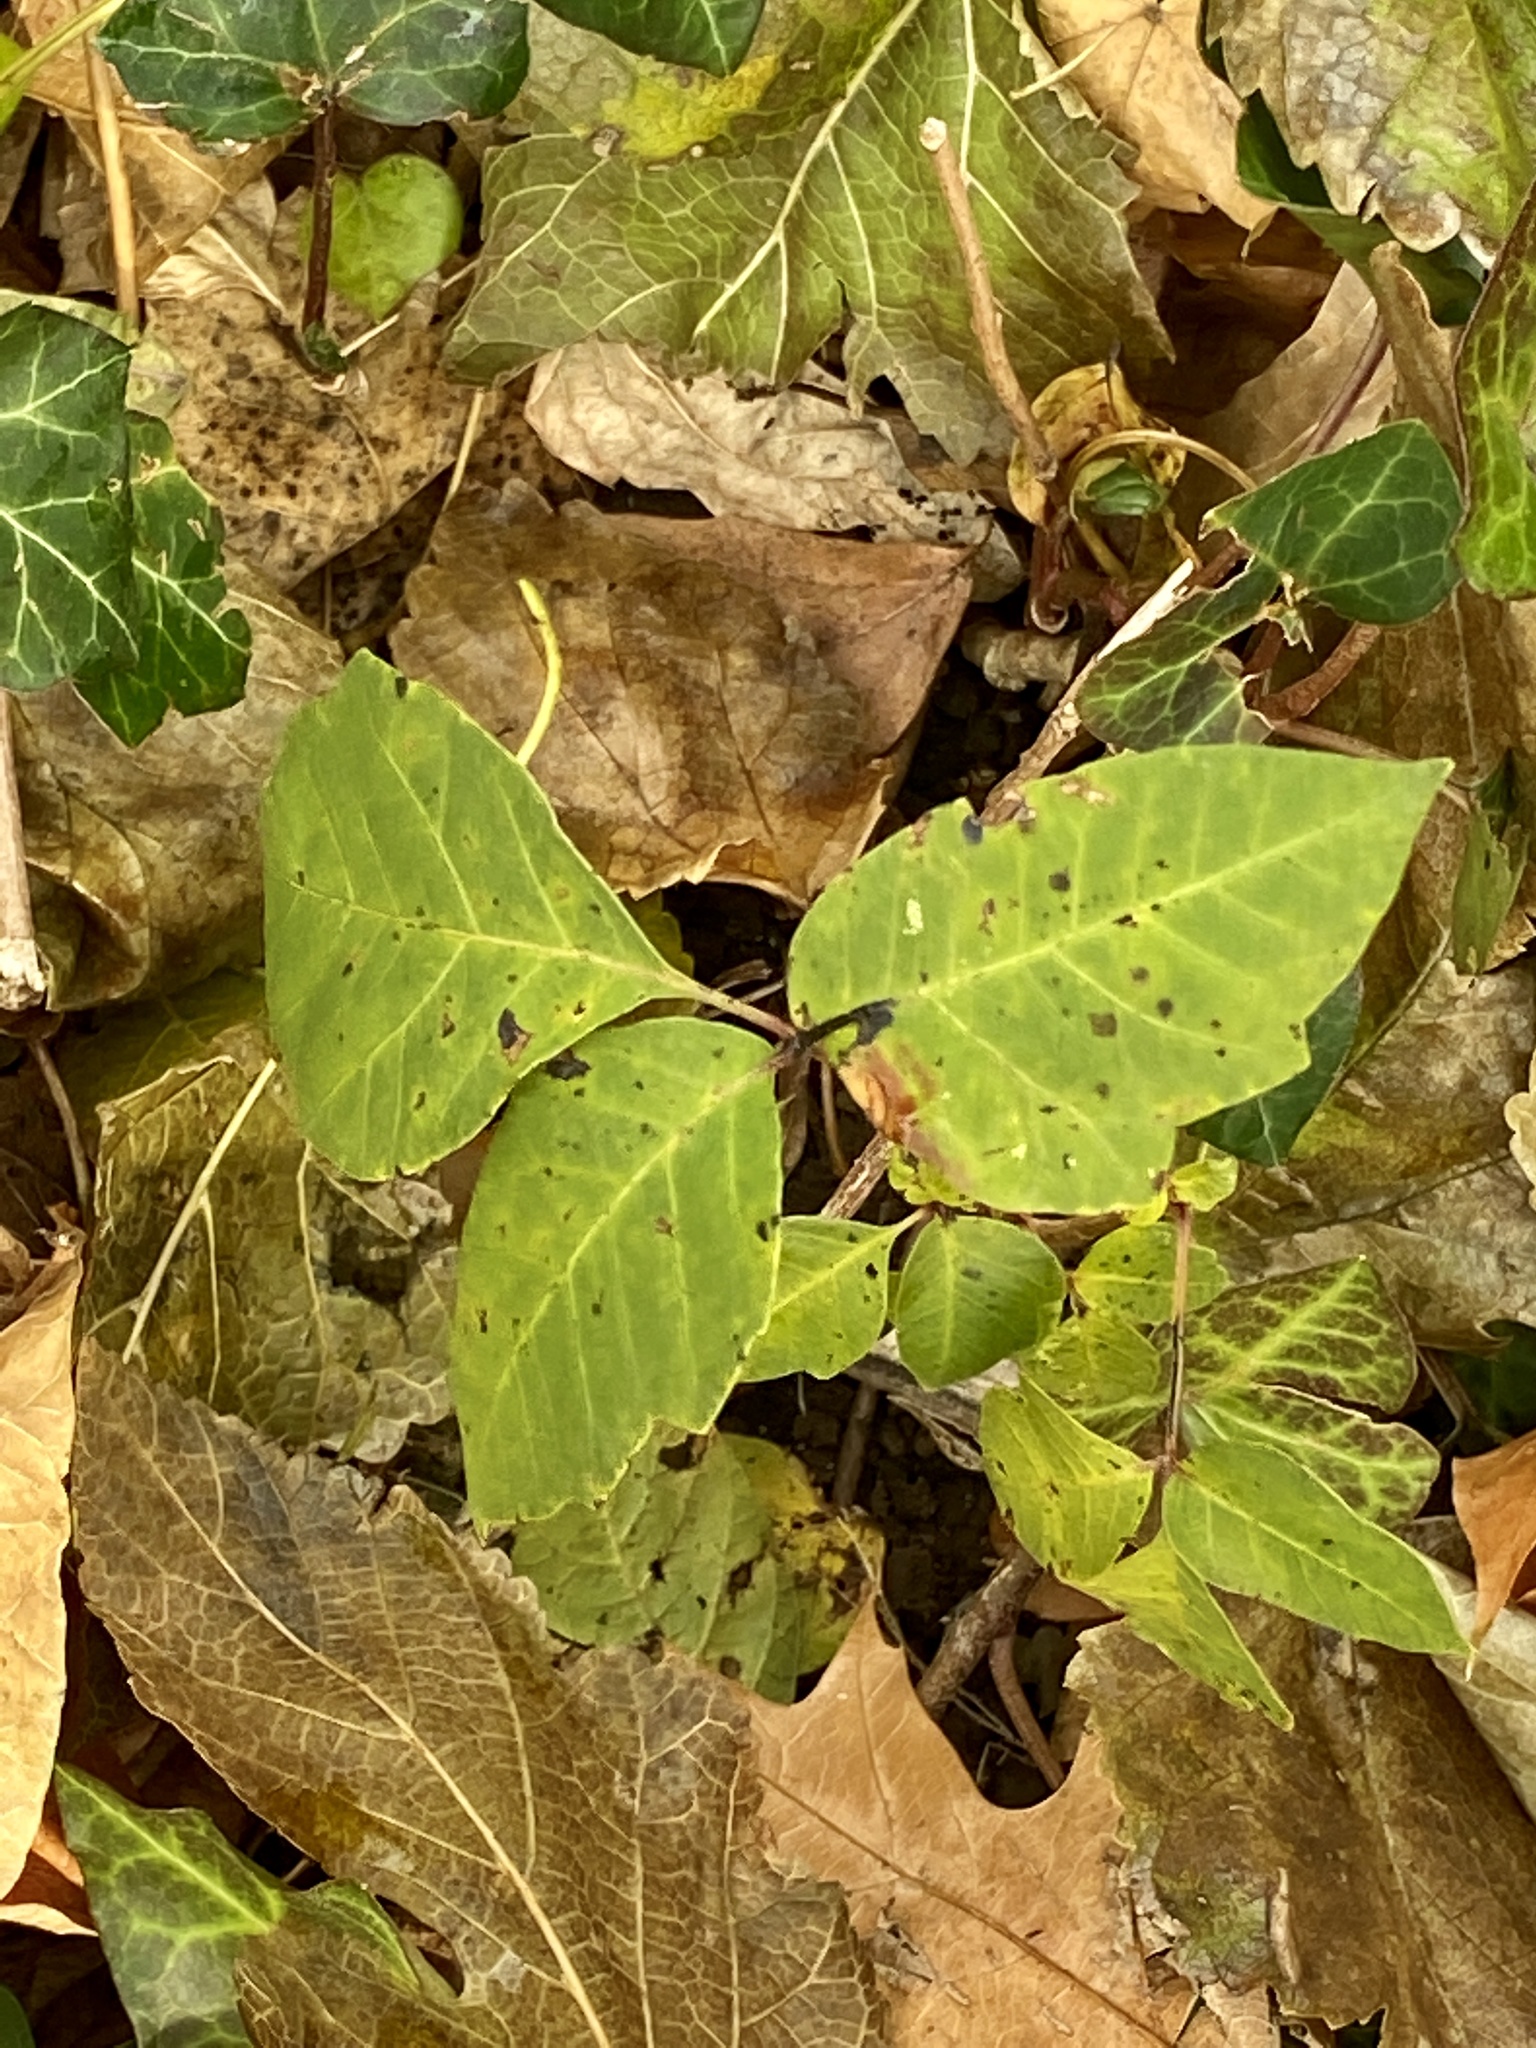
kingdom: Plantae
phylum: Tracheophyta
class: Magnoliopsida
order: Sapindales
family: Anacardiaceae
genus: Toxicodendron
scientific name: Toxicodendron radicans
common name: Poison ivy
